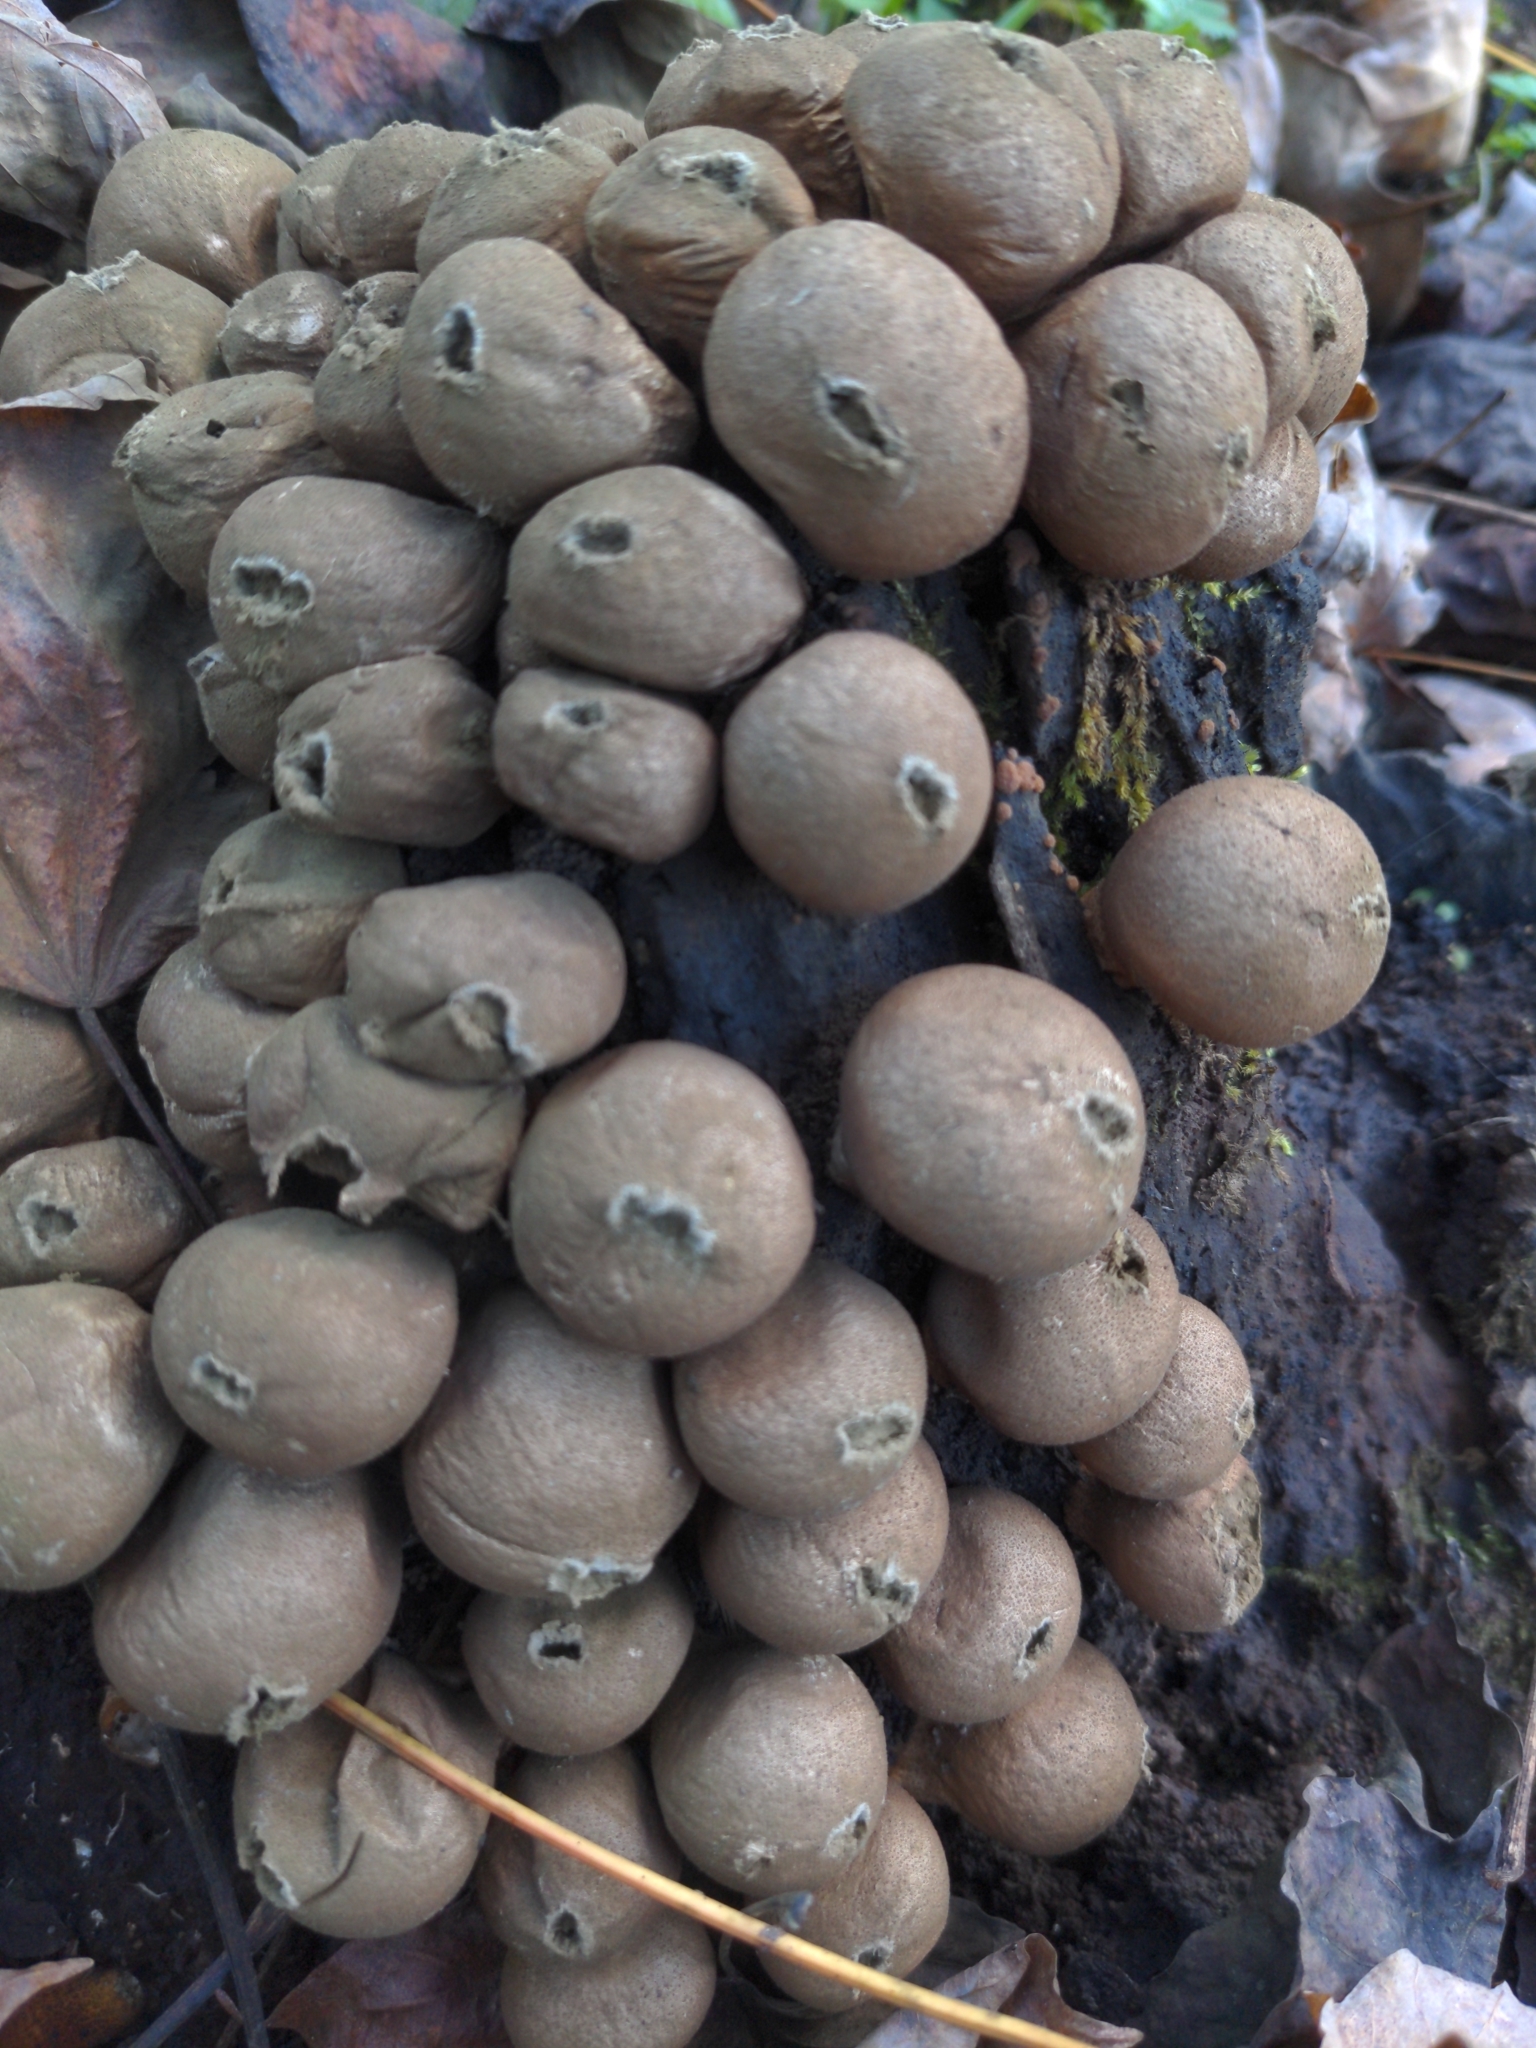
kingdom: Fungi
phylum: Basidiomycota
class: Agaricomycetes
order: Agaricales
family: Lycoperdaceae
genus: Apioperdon
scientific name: Apioperdon pyriforme
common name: Pear-shaped puffball
